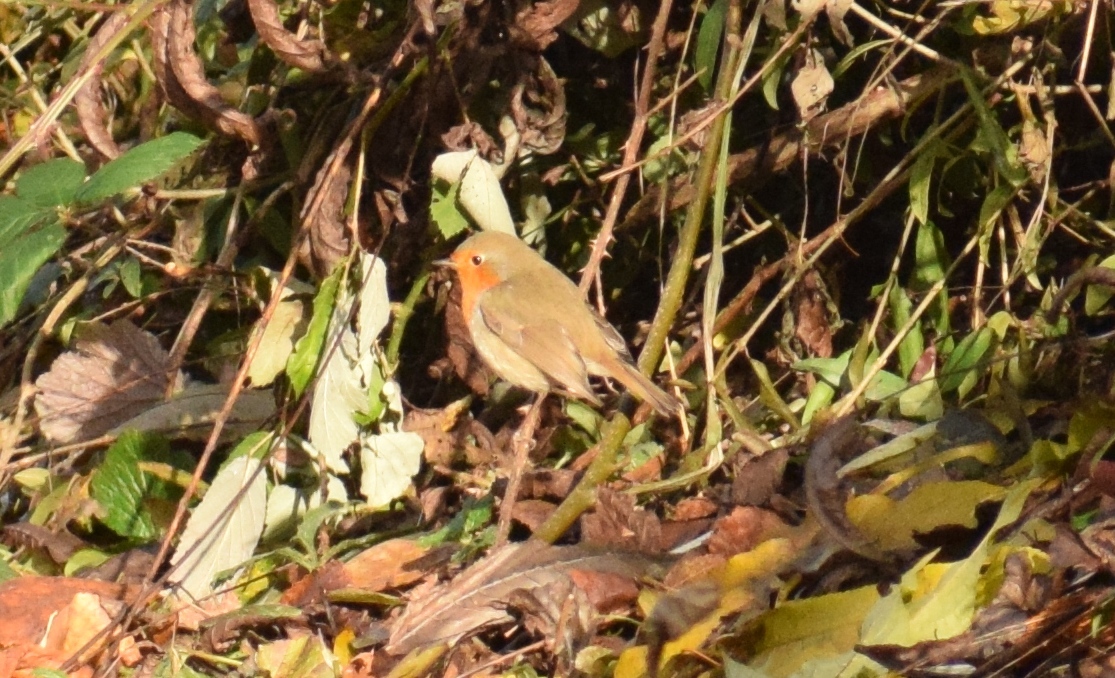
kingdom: Animalia
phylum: Chordata
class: Aves
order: Passeriformes
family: Muscicapidae
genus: Erithacus
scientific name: Erithacus rubecula
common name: European robin
